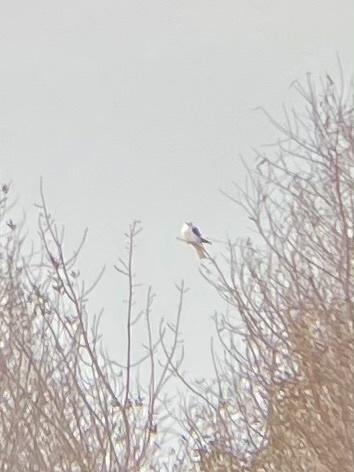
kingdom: Animalia
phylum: Chordata
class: Aves
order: Accipitriformes
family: Accipitridae
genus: Elanus
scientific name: Elanus leucurus
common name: White-tailed kite
